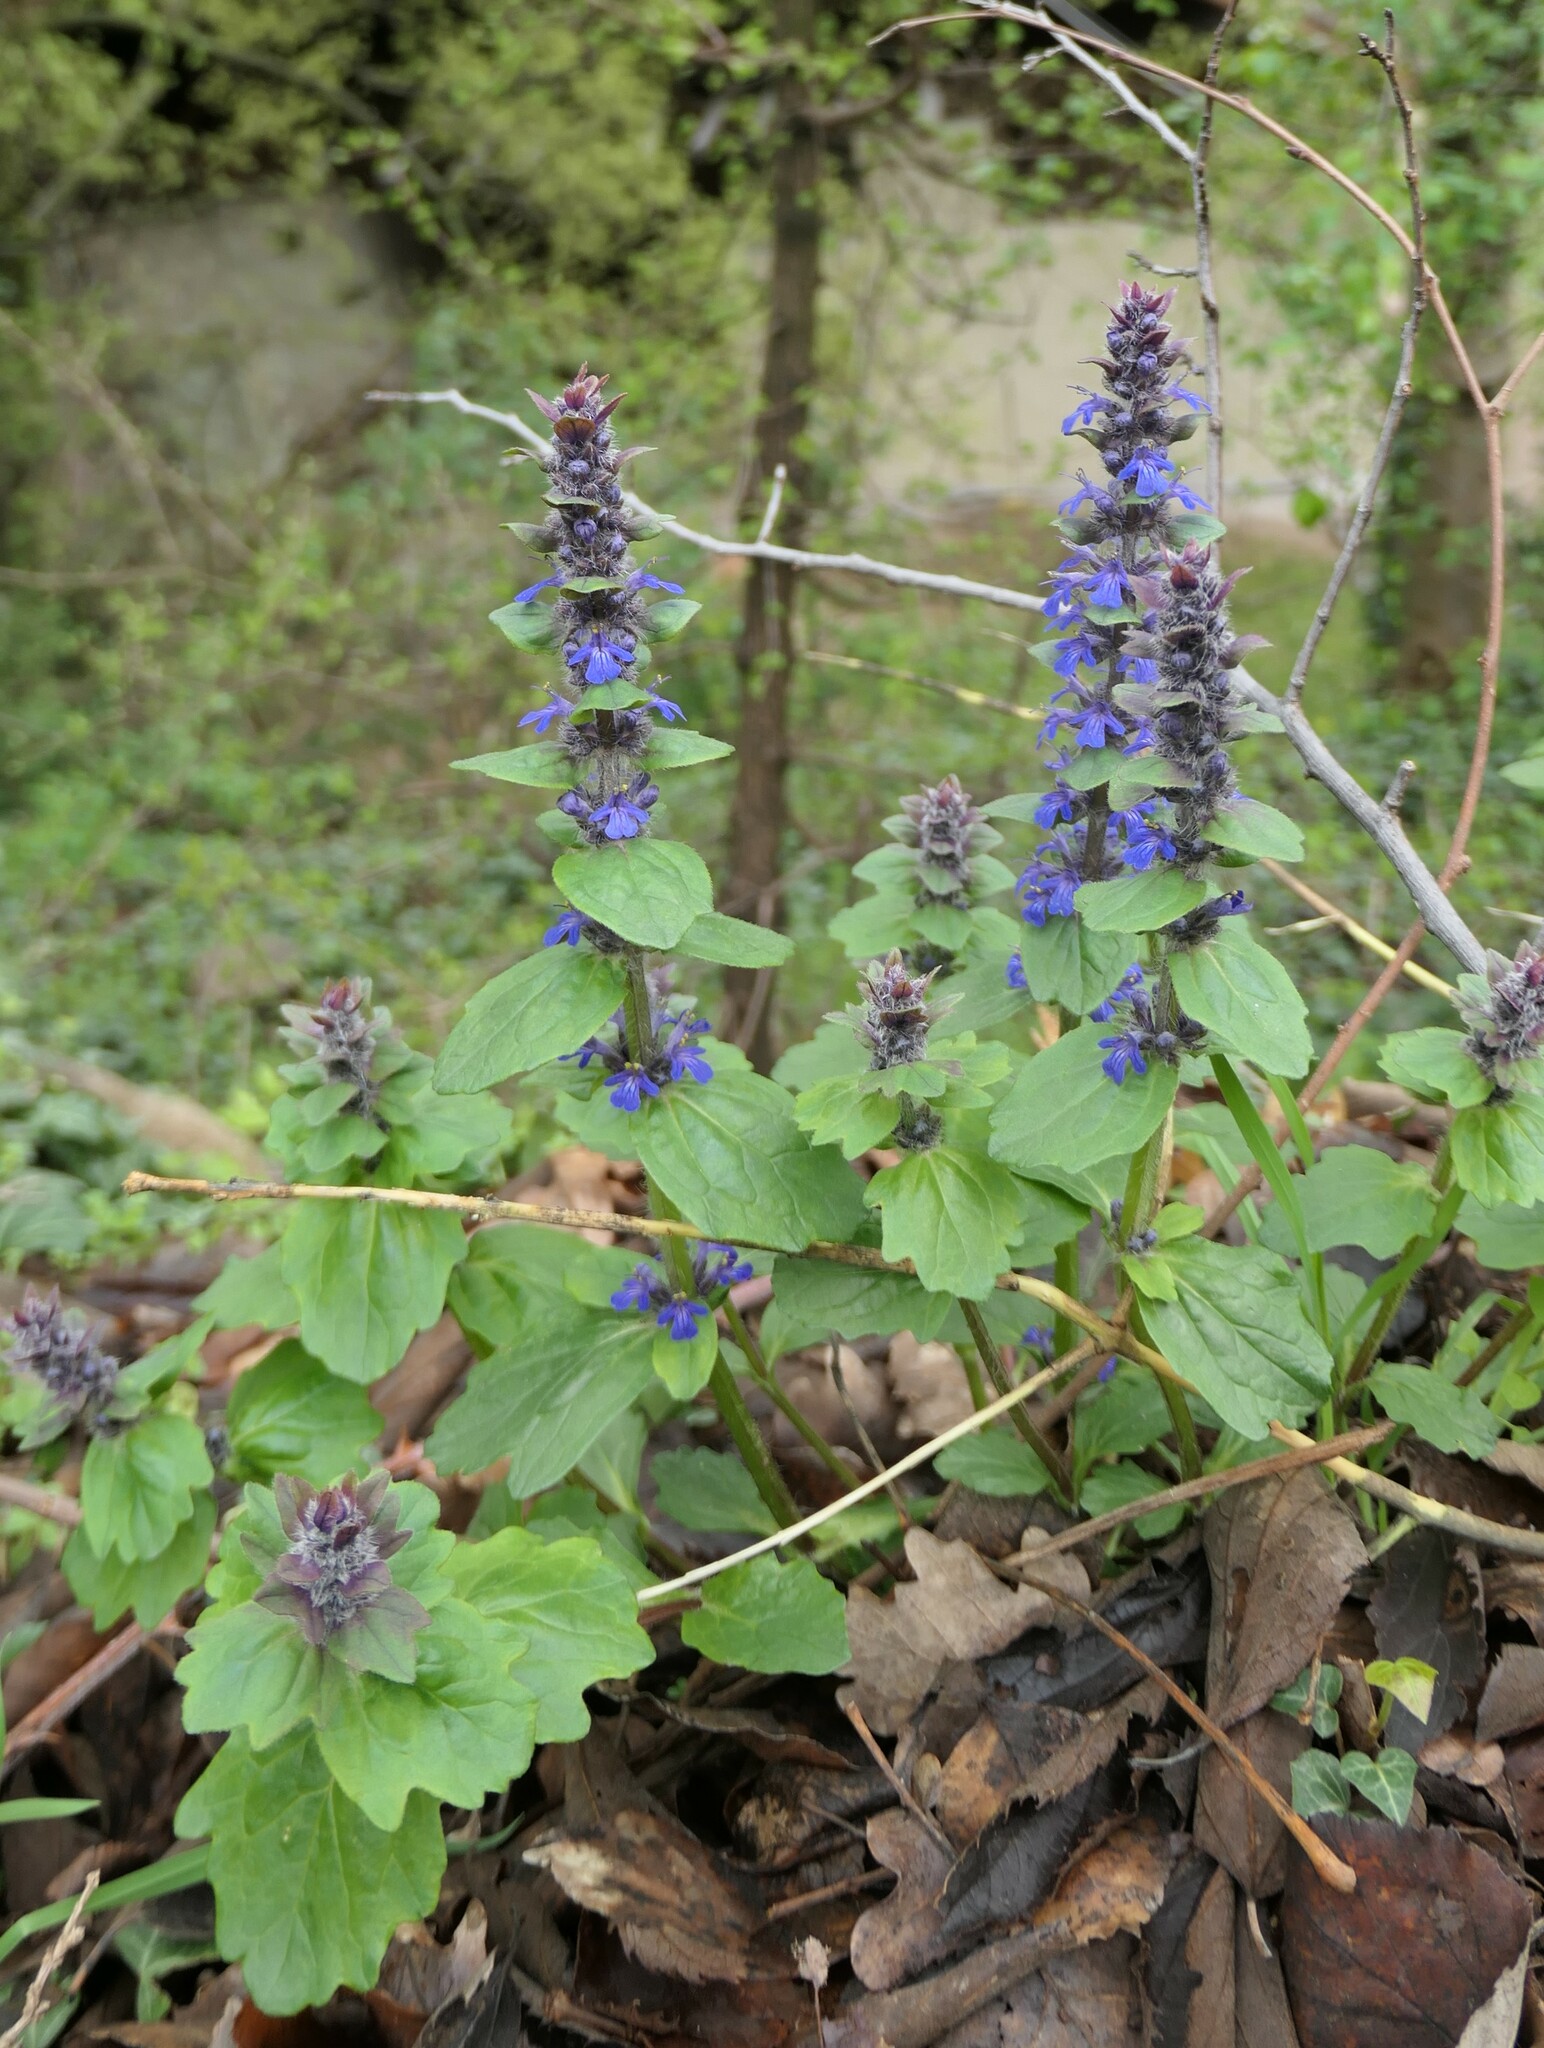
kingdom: Plantae
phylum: Tracheophyta
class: Magnoliopsida
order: Lamiales
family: Lamiaceae
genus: Ajuga
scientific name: Ajuga genevensis
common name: Blue bugle
